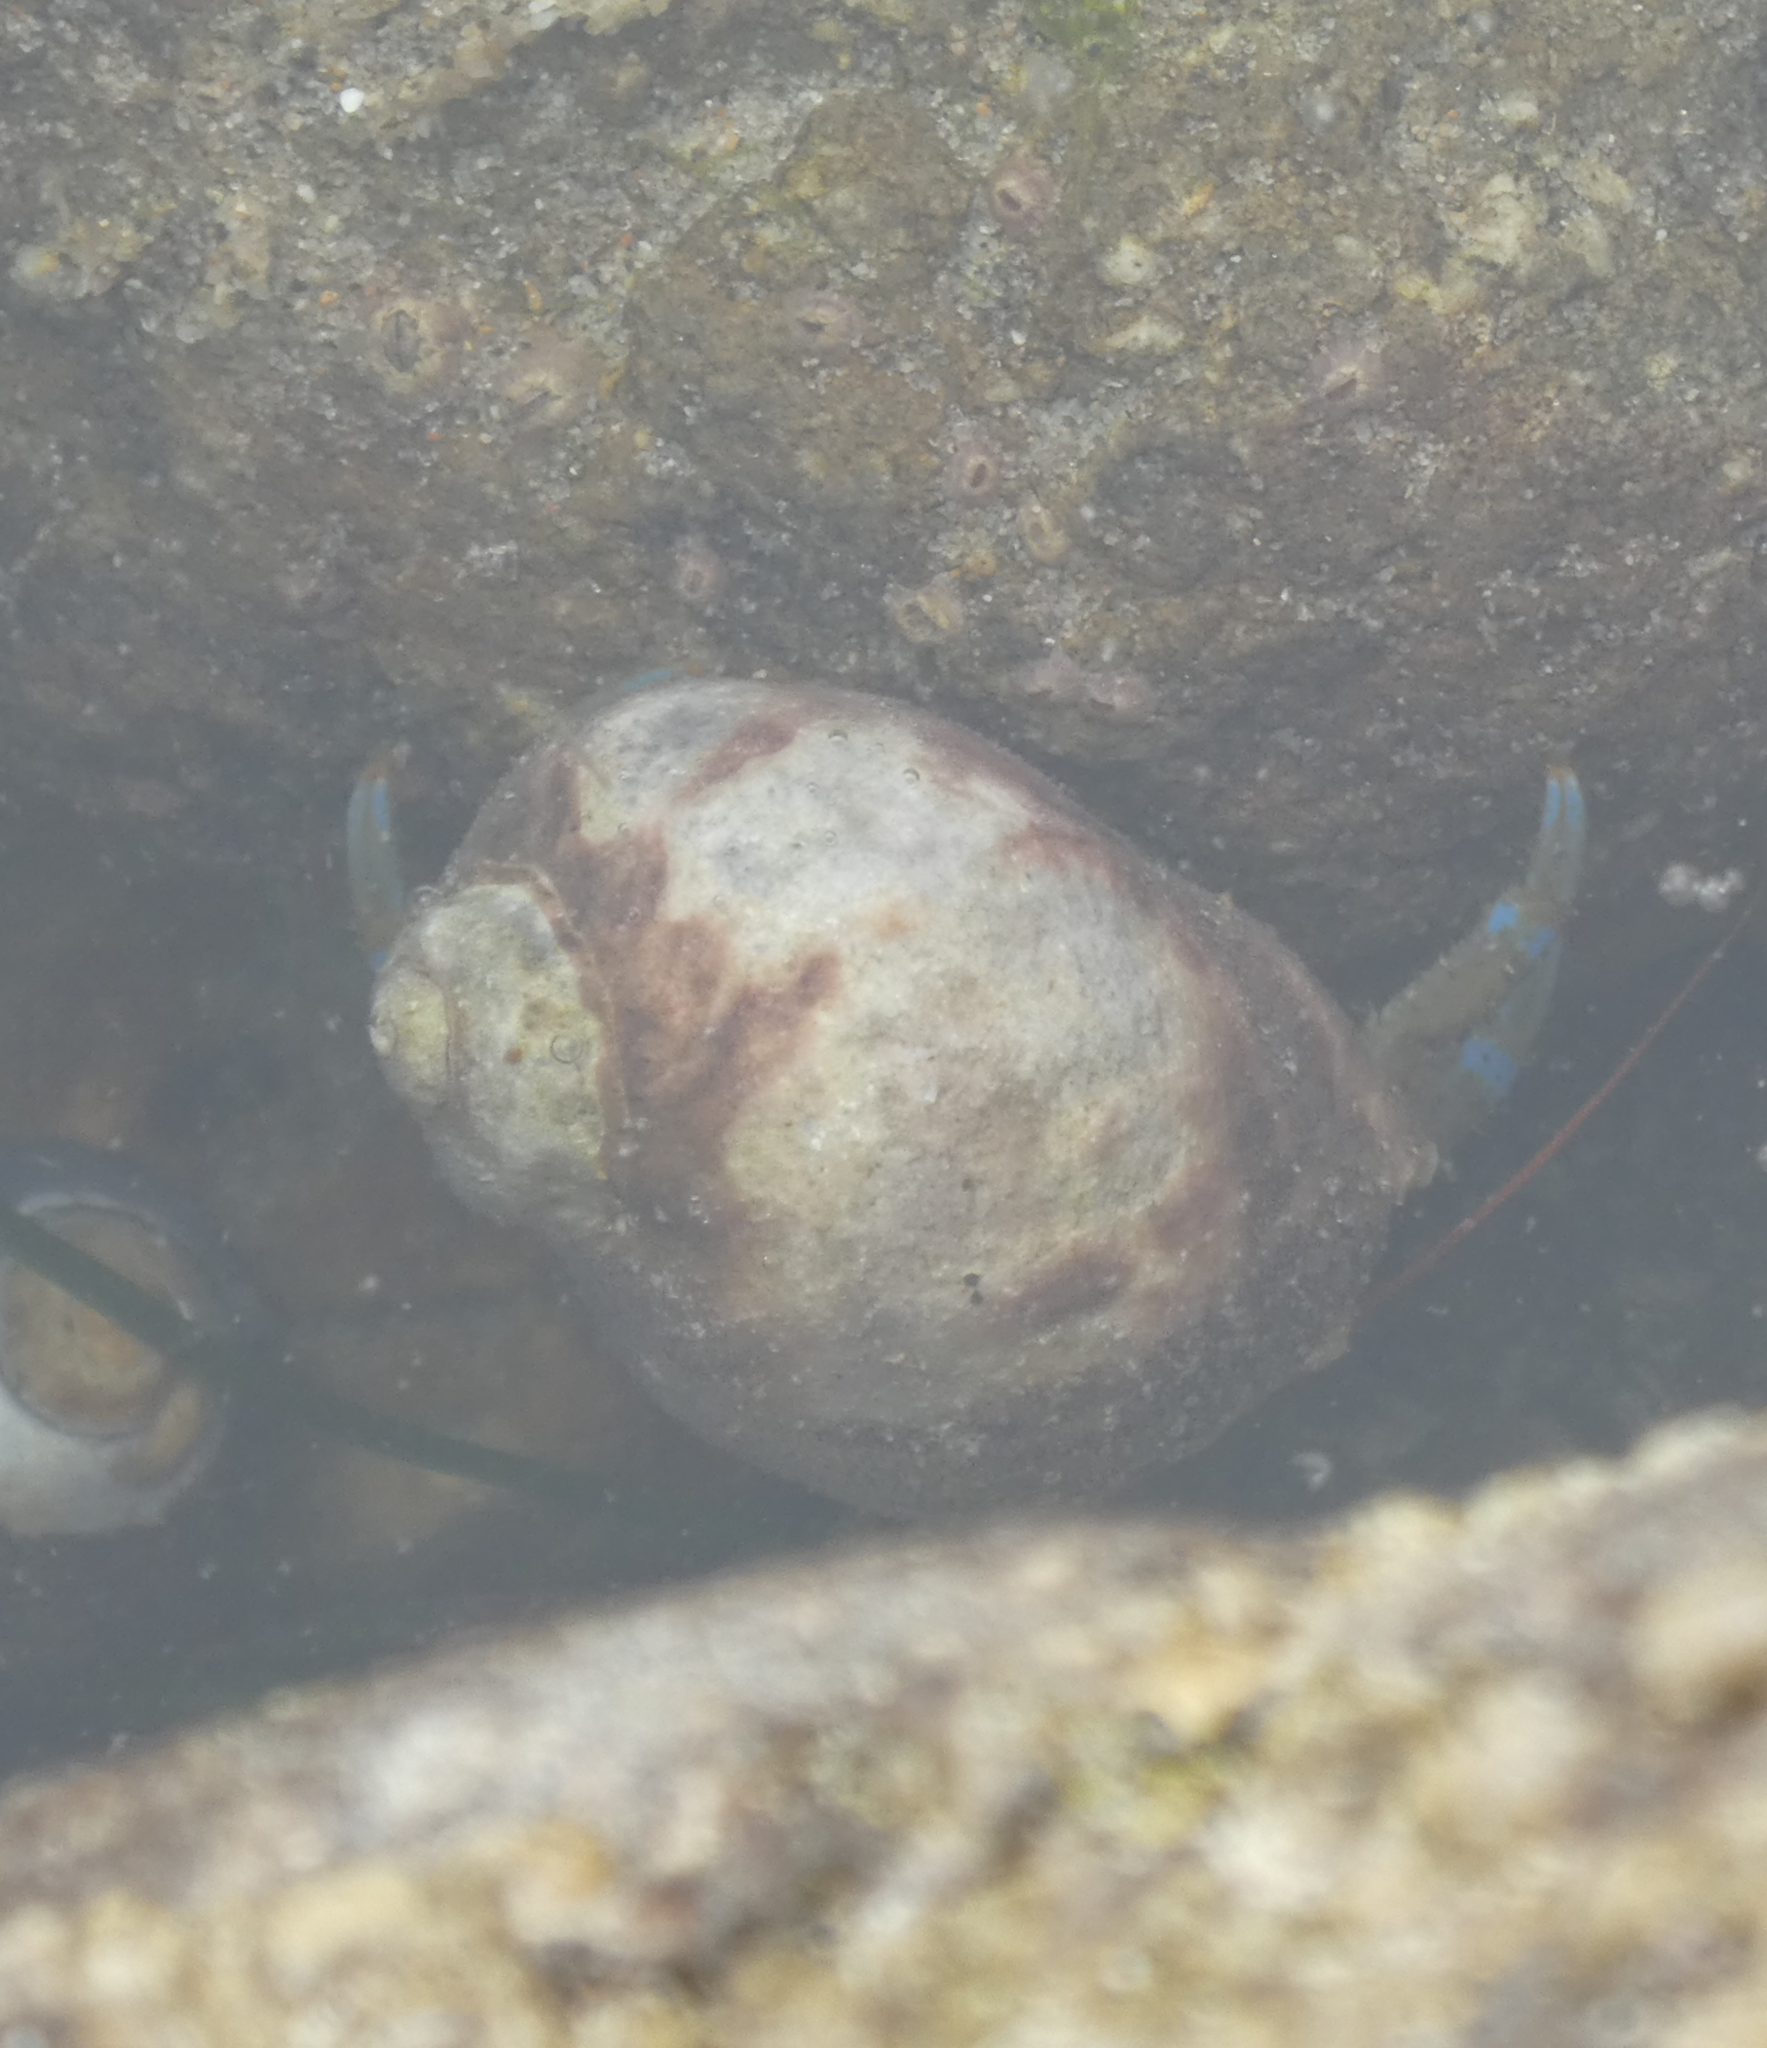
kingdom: Animalia
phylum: Arthropoda
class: Malacostraca
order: Decapoda
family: Paguridae
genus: Pagurus
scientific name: Pagurus samuelis
